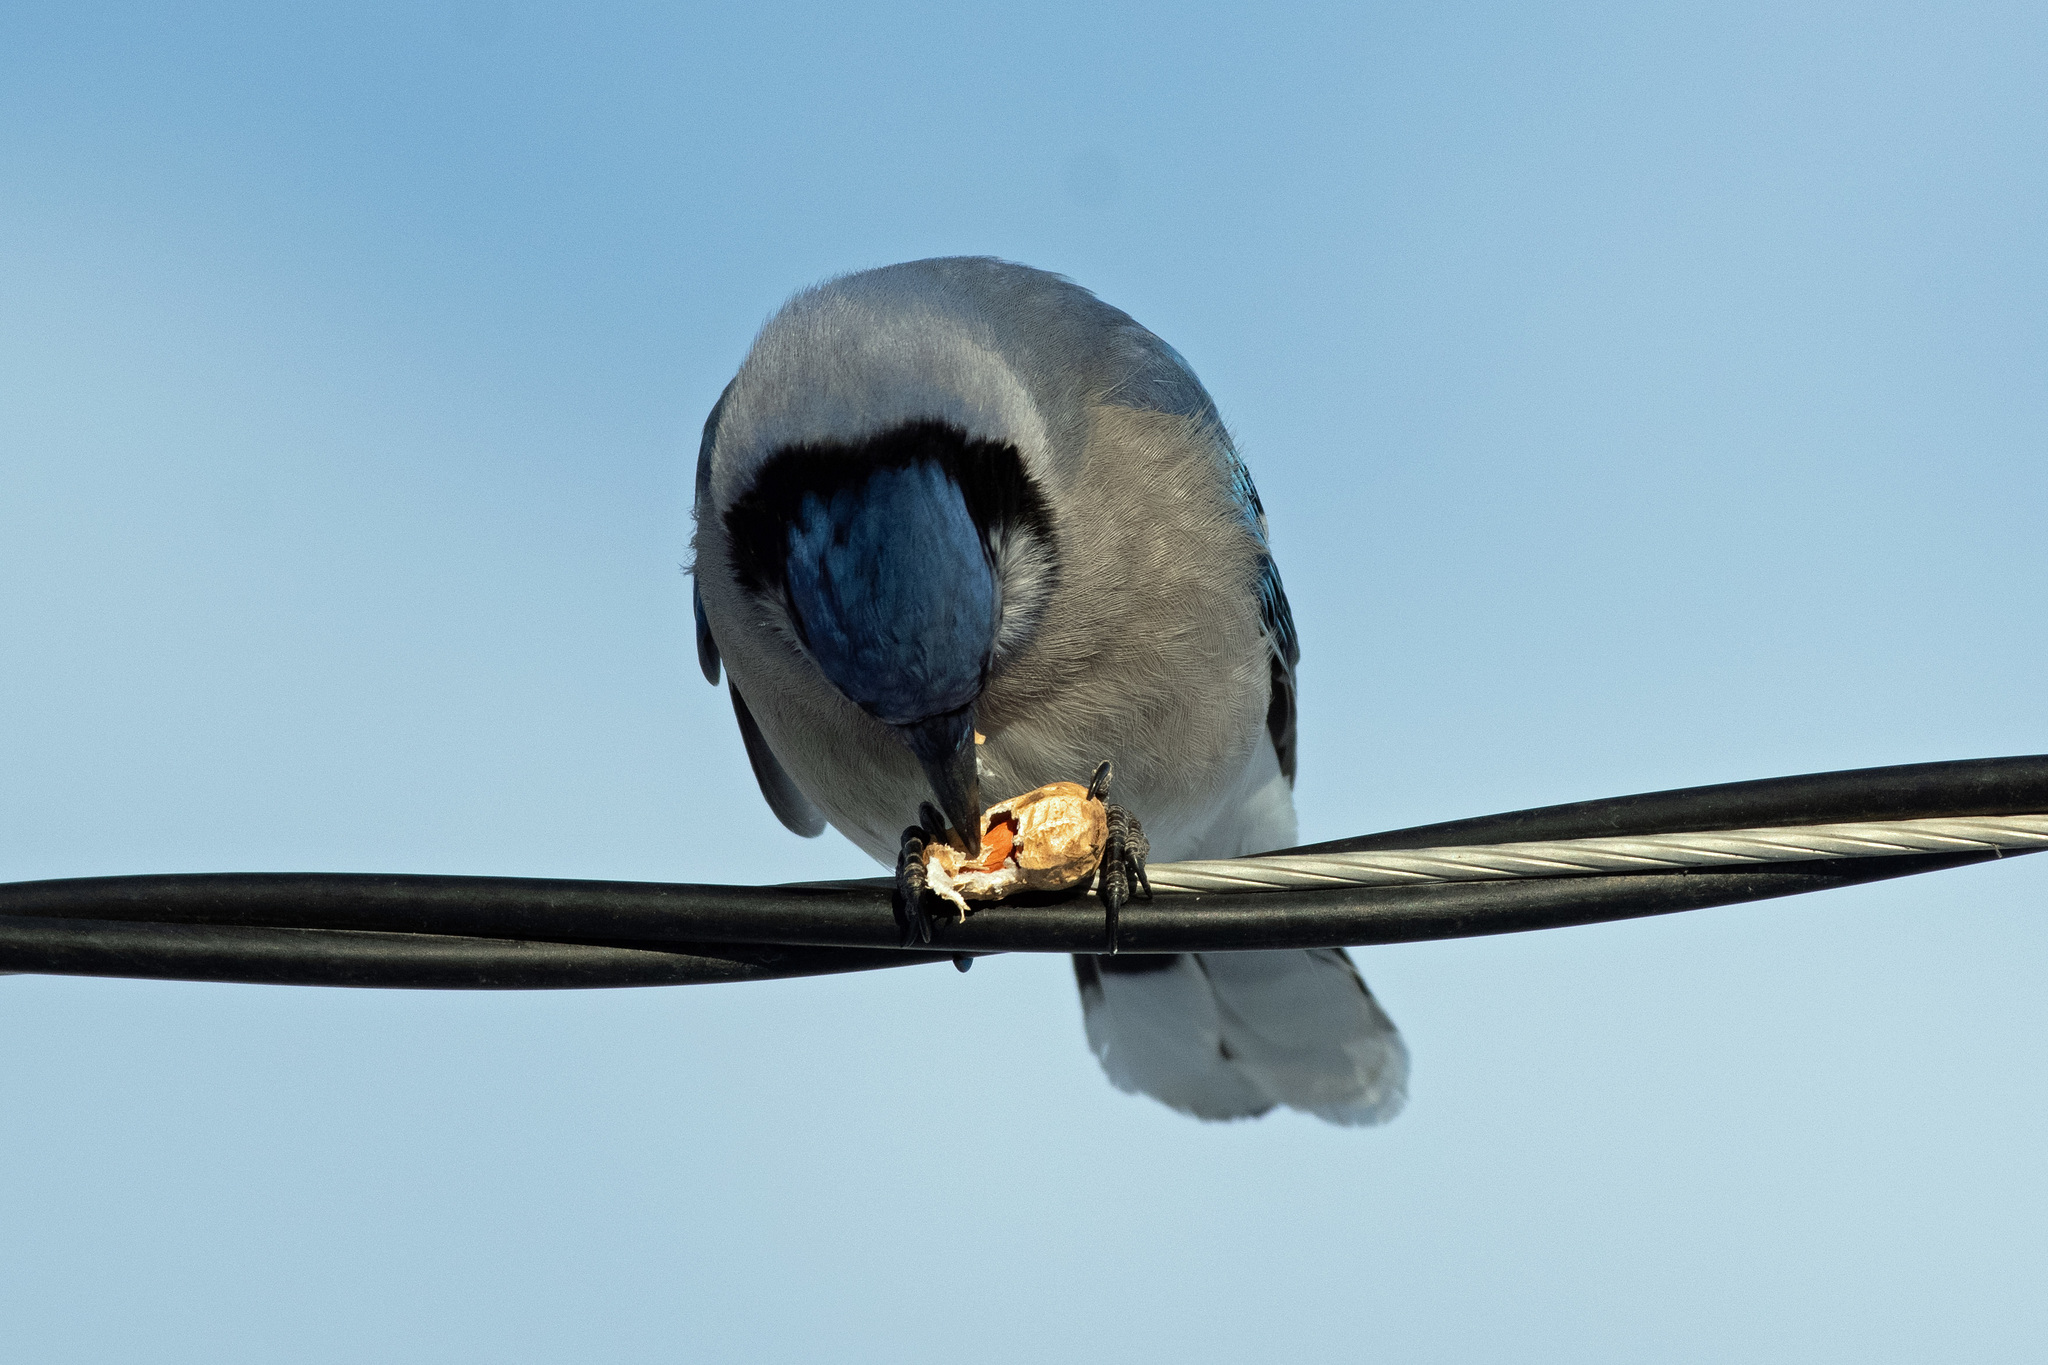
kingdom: Animalia
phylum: Chordata
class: Aves
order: Passeriformes
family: Corvidae
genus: Cyanocitta
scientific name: Cyanocitta cristata
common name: Blue jay
